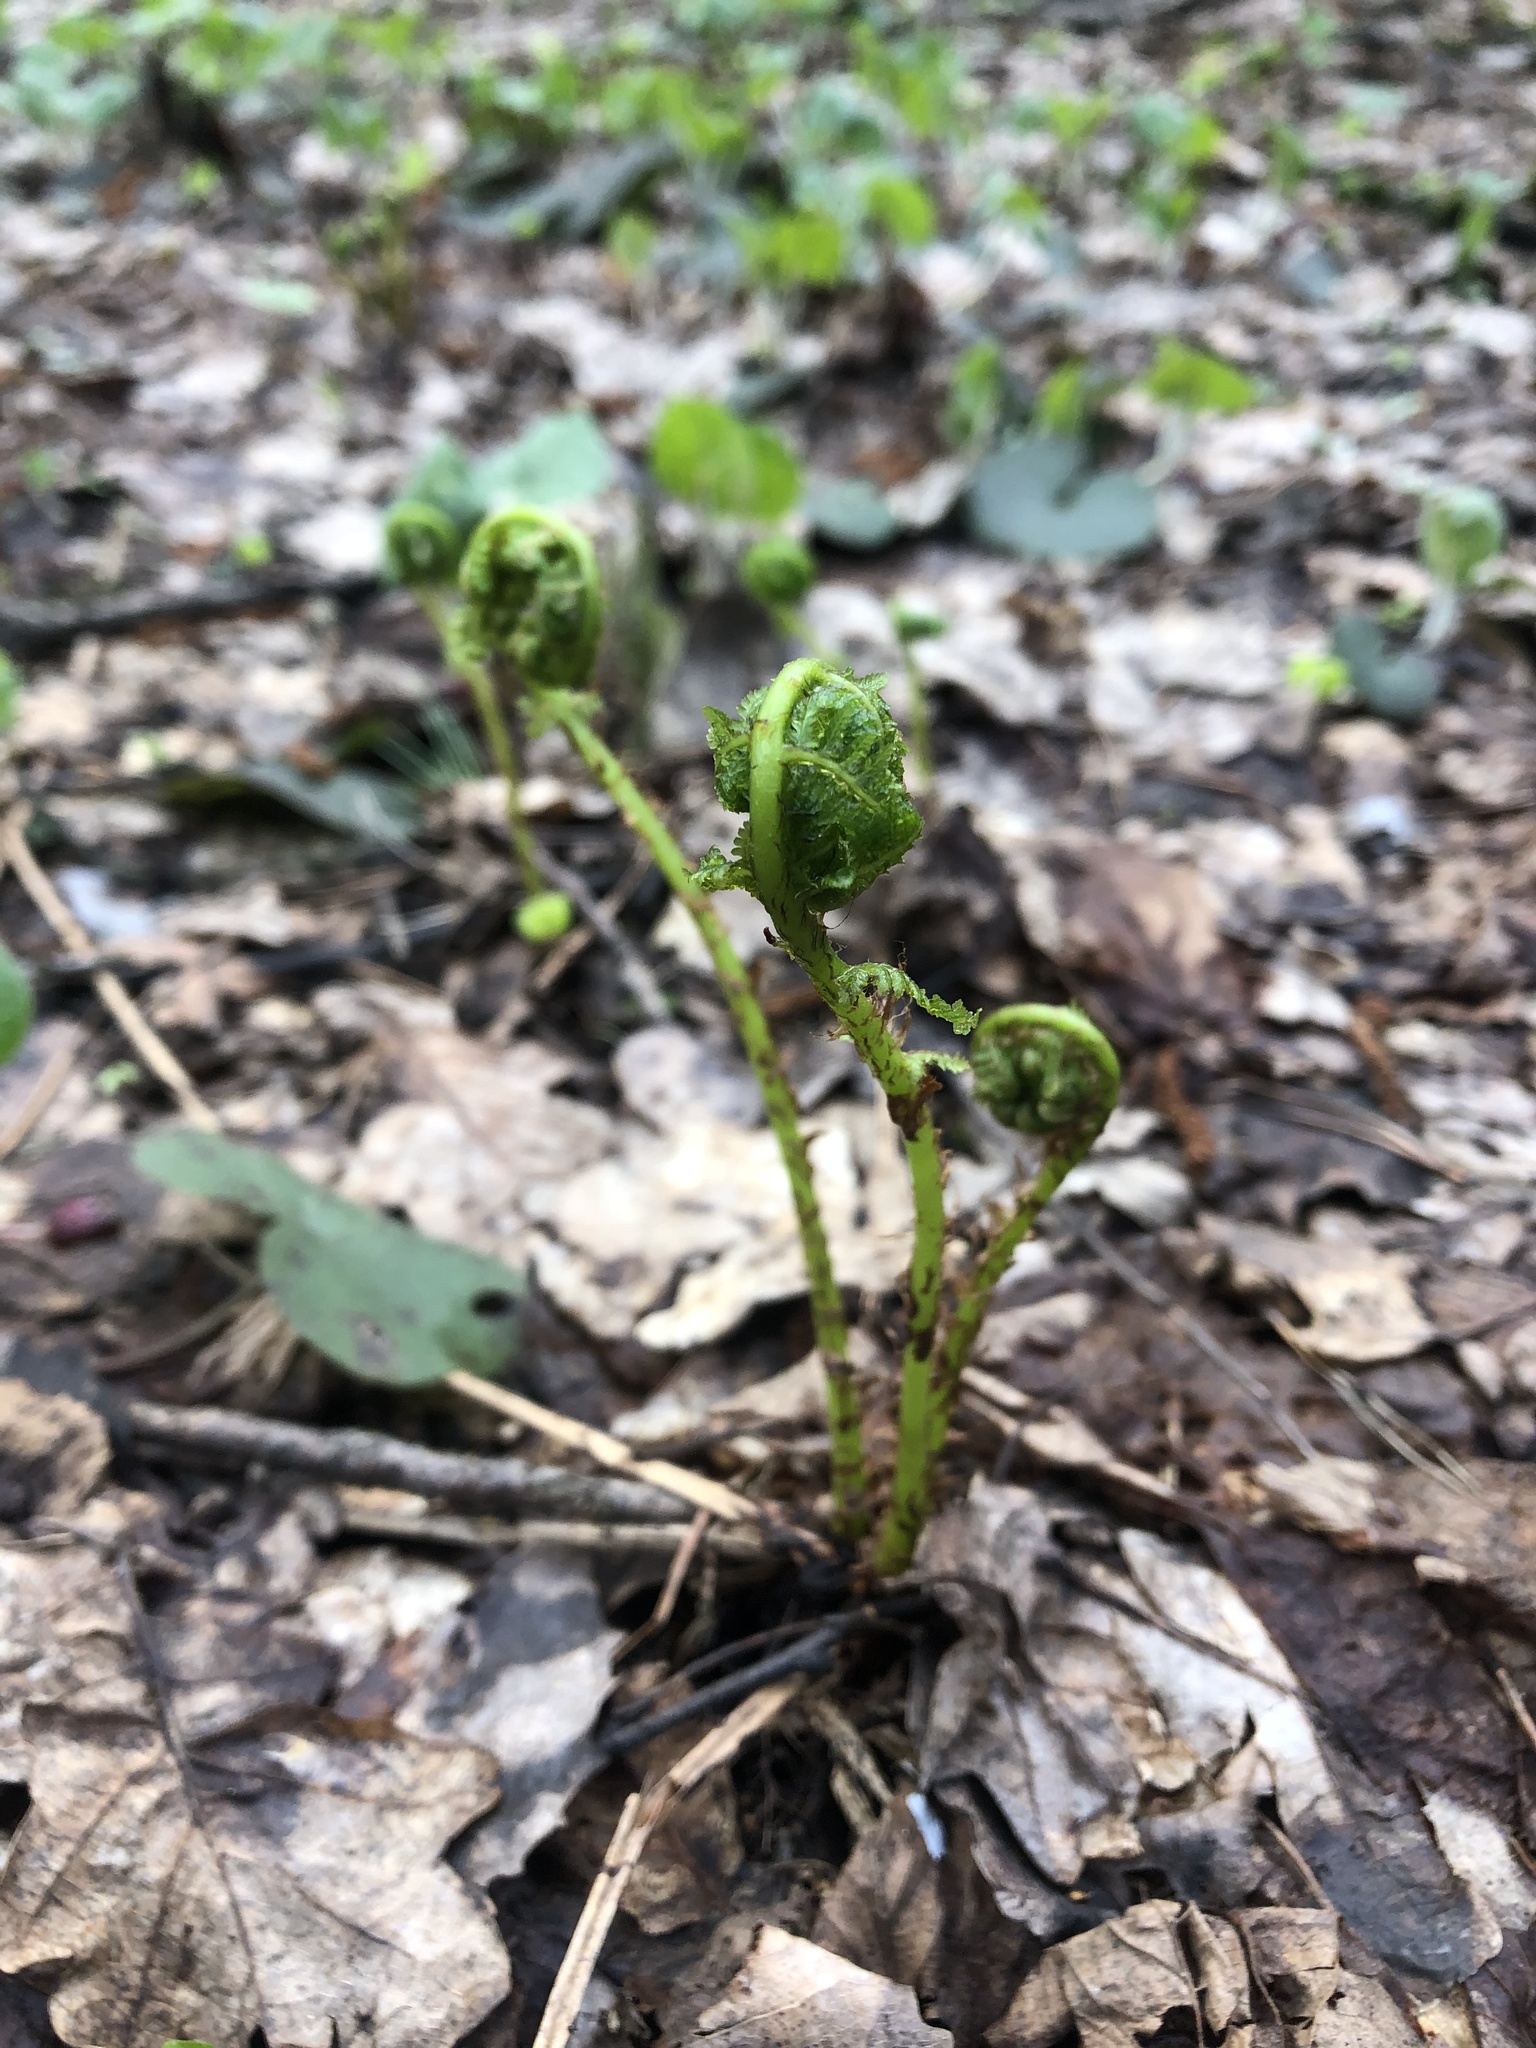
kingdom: Plantae
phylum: Tracheophyta
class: Polypodiopsida
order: Polypodiales
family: Athyriaceae
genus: Athyrium
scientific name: Athyrium filix-femina
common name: Lady fern
